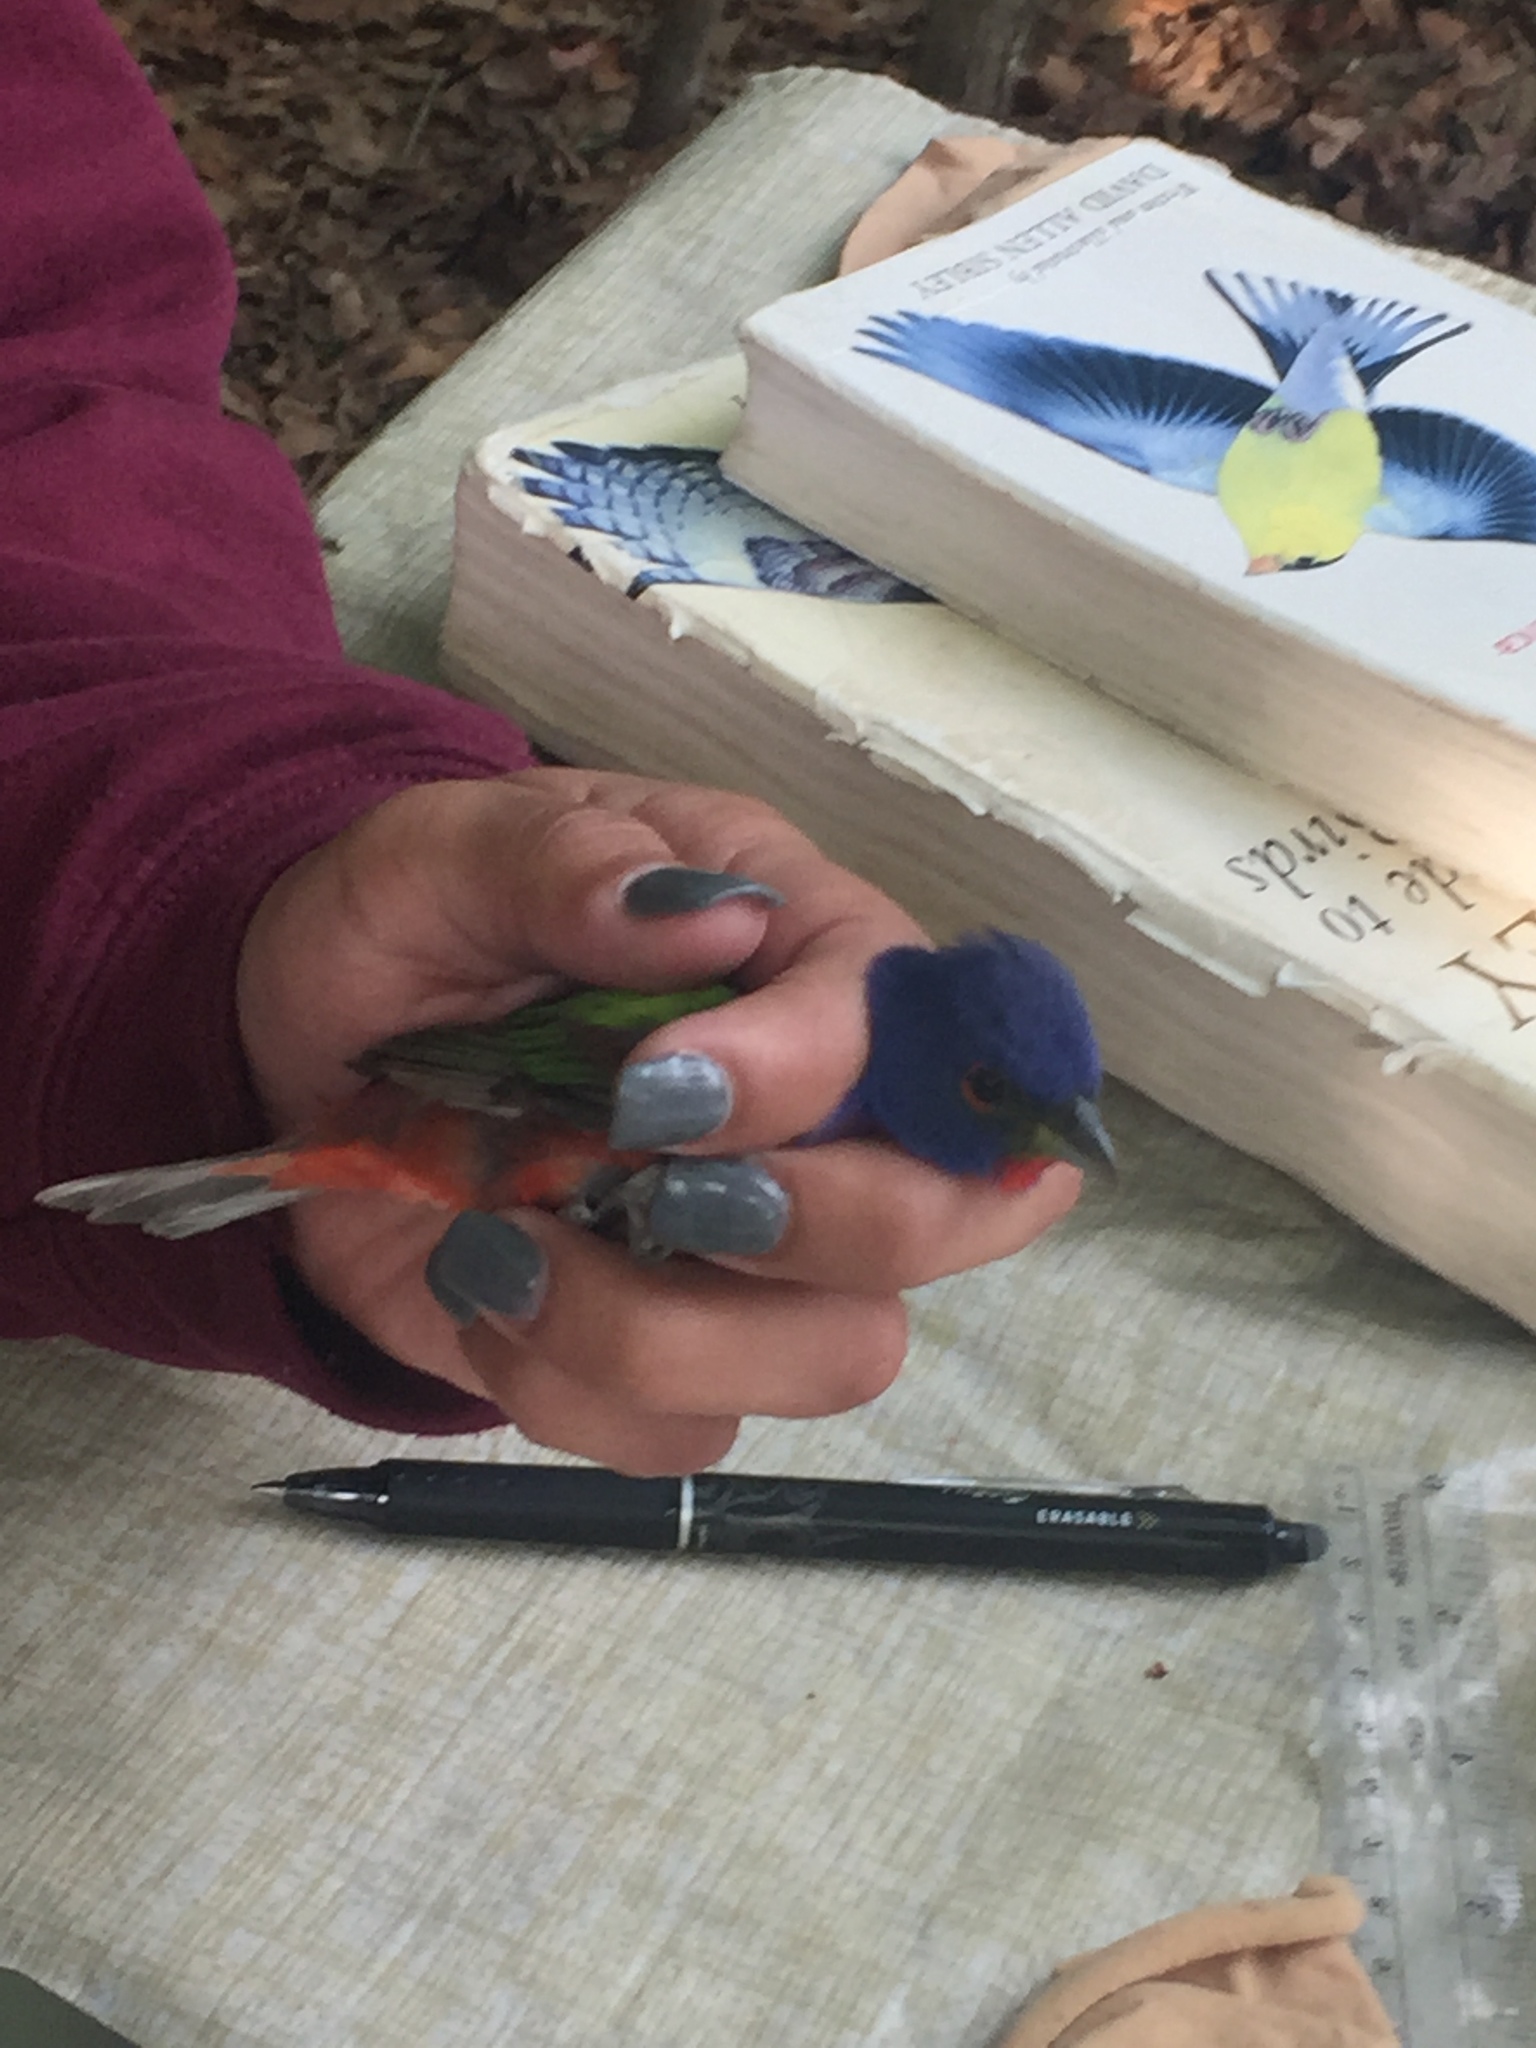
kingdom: Animalia
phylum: Chordata
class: Aves
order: Passeriformes
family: Cardinalidae
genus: Passerina
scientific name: Passerina ciris
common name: Painted bunting
